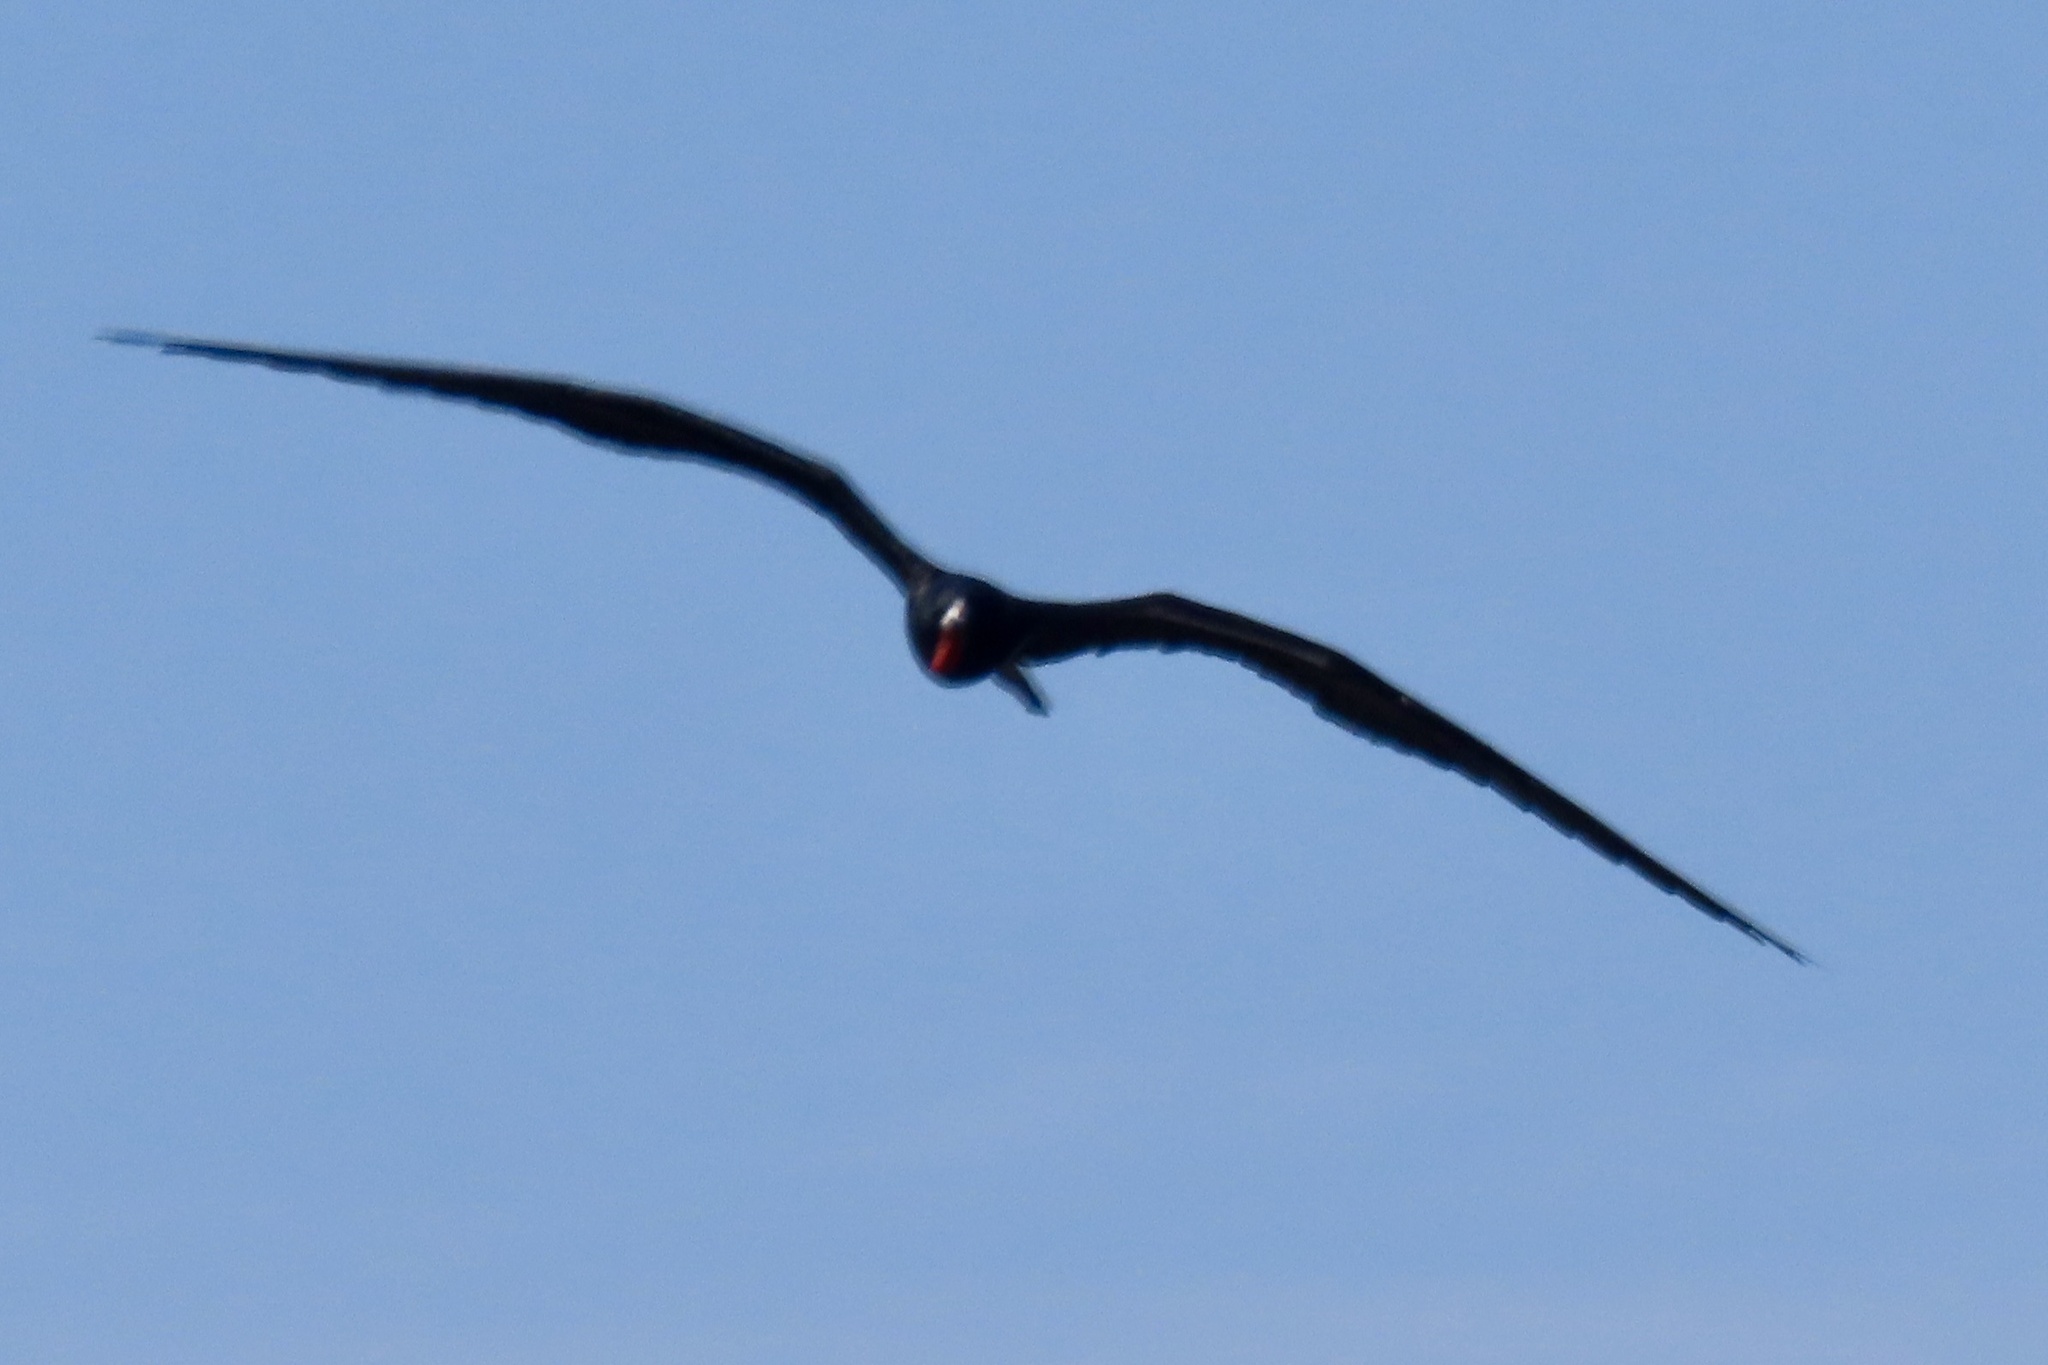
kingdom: Animalia
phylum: Chordata
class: Aves
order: Suliformes
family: Fregatidae
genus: Fregata
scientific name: Fregata magnificens
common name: Magnificent frigatebird
